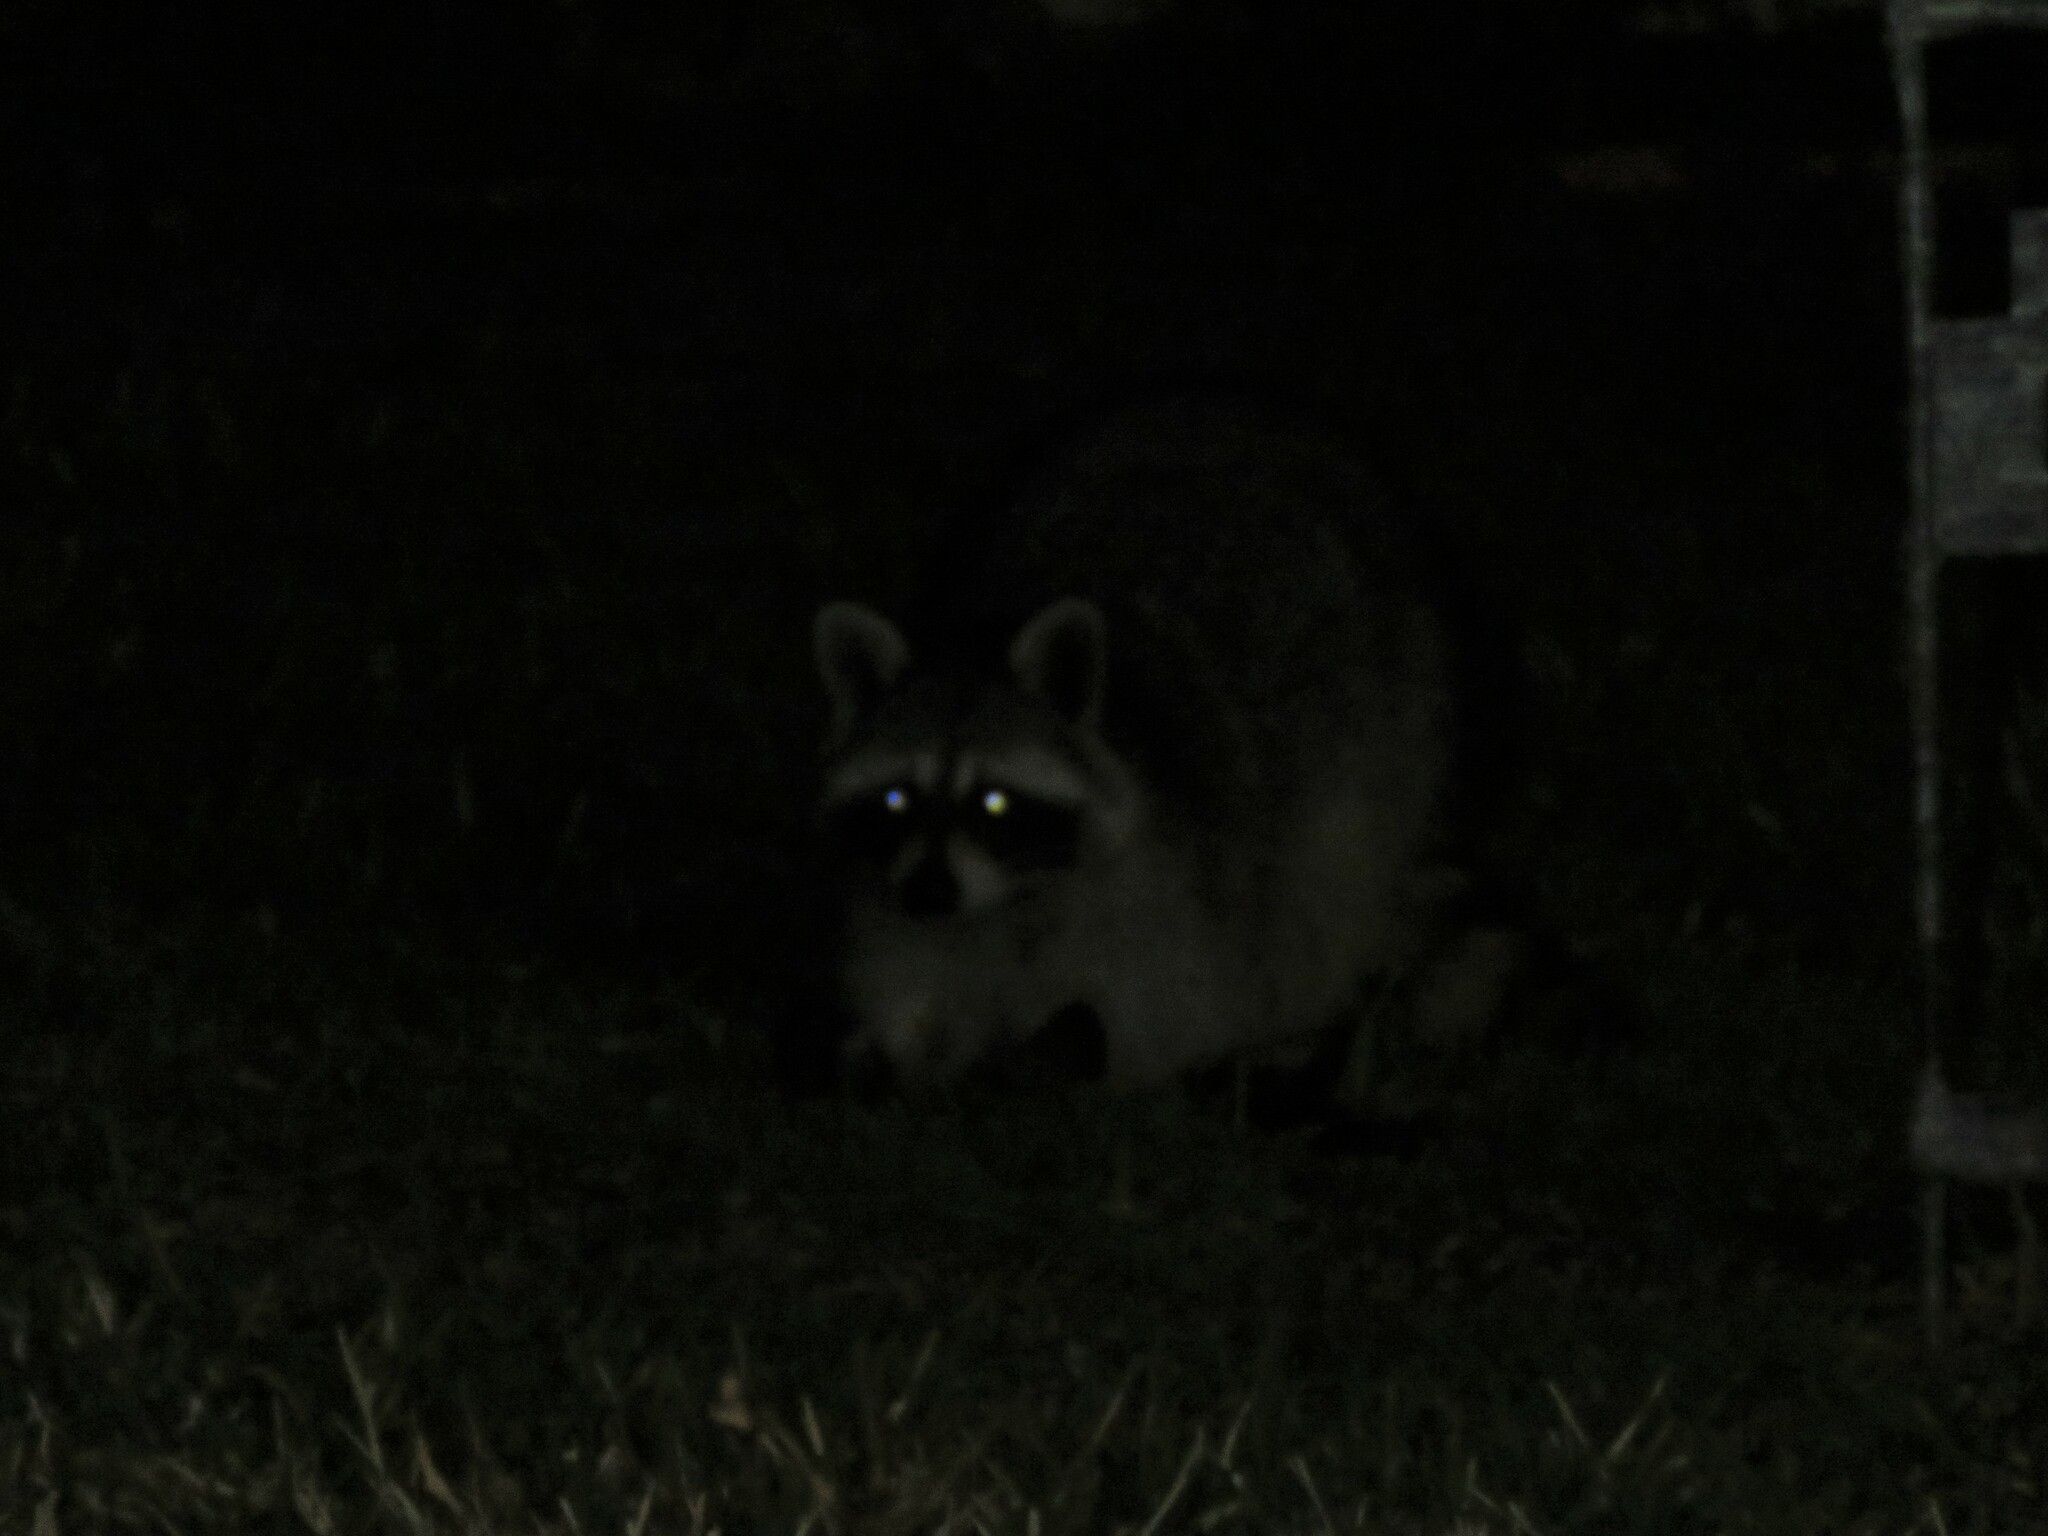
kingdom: Animalia
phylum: Chordata
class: Mammalia
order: Carnivora
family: Procyonidae
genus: Procyon
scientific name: Procyon lotor
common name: Raccoon
